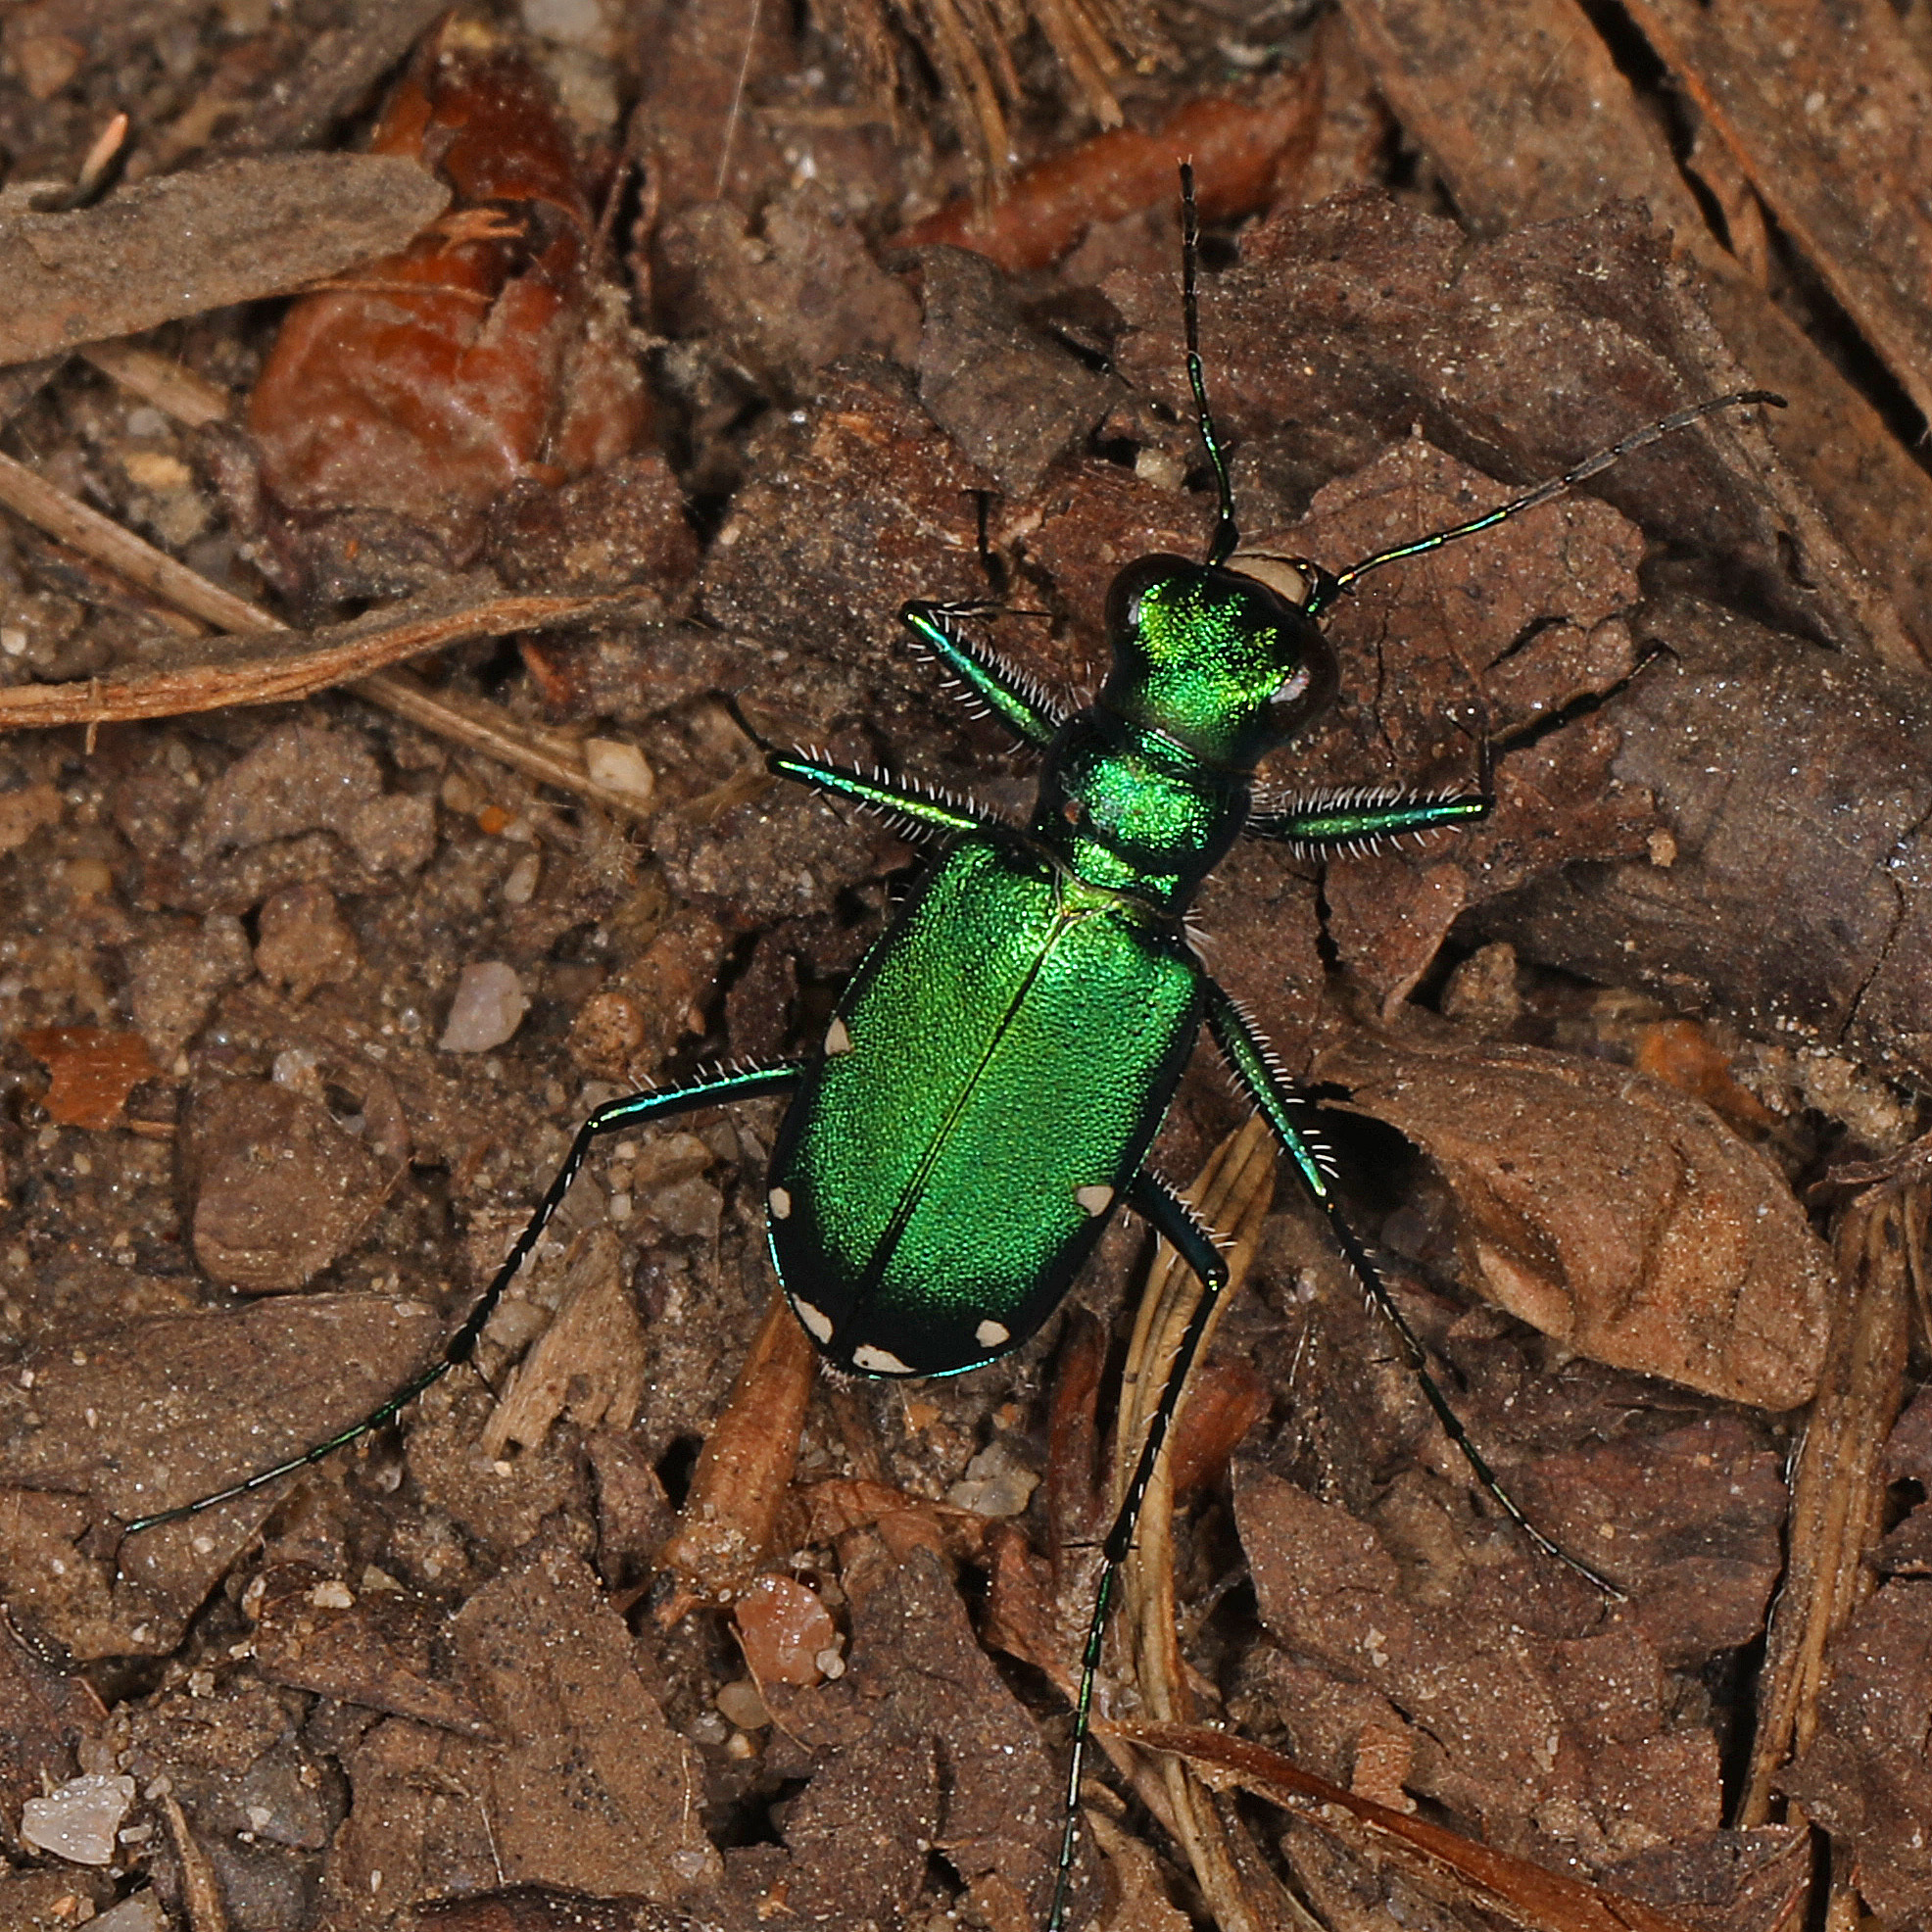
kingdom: Animalia
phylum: Arthropoda
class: Insecta
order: Coleoptera
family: Carabidae
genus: Cicindela
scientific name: Cicindela sexguttata
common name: Six-spotted tiger beetle
